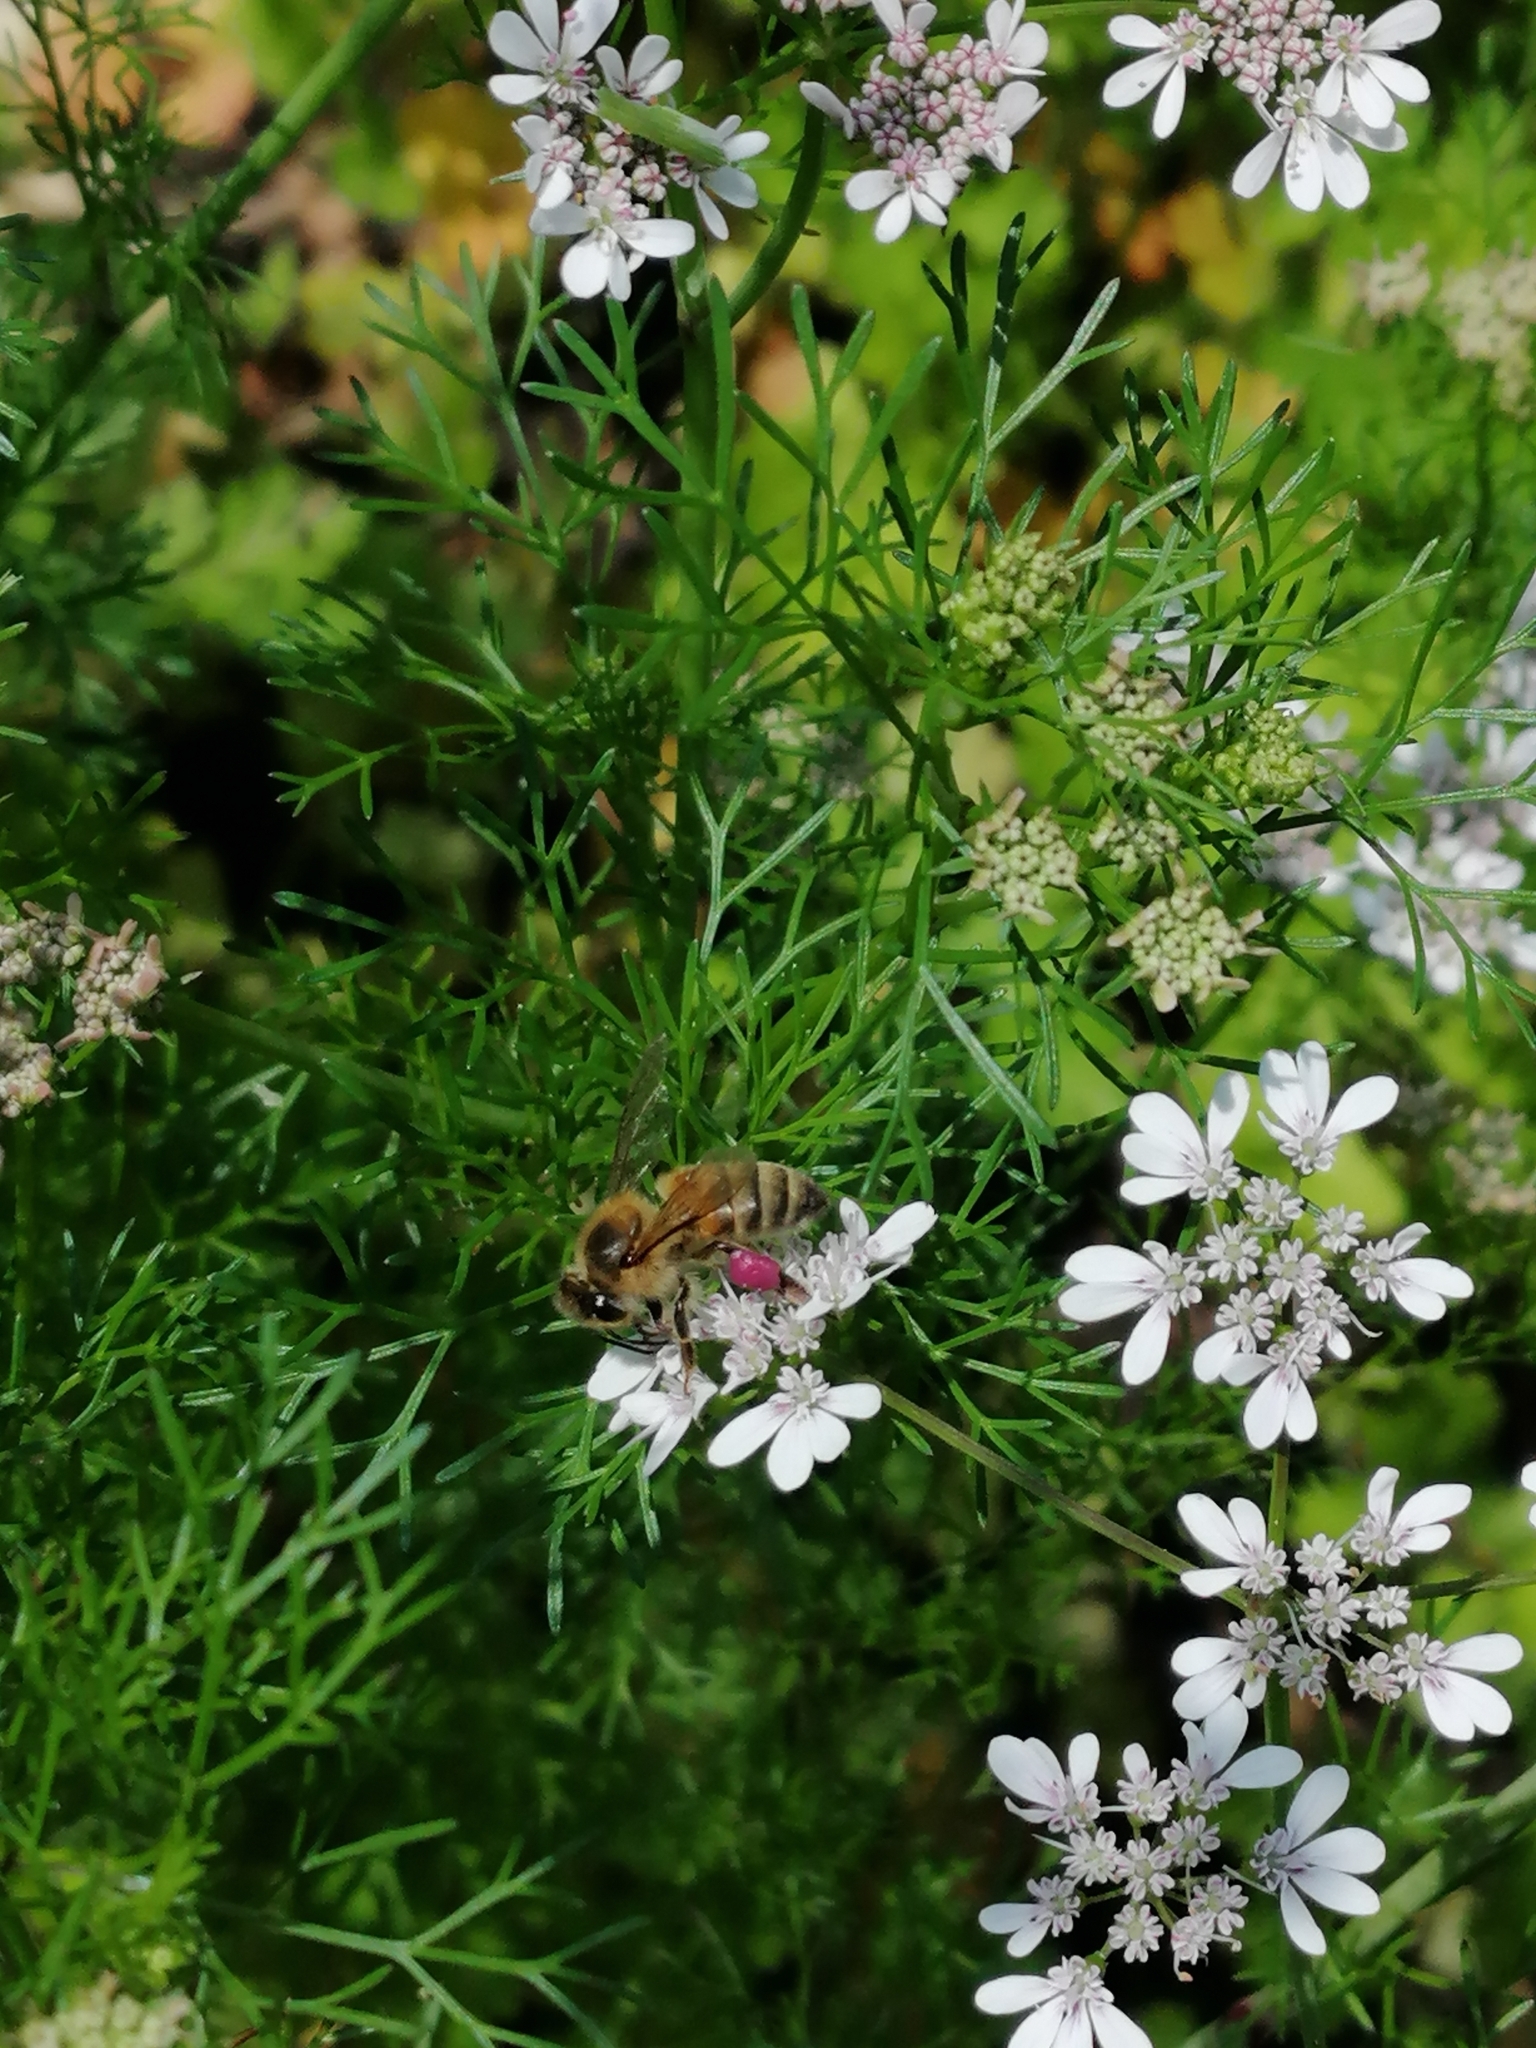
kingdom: Animalia
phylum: Arthropoda
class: Insecta
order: Hymenoptera
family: Apidae
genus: Apis
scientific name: Apis mellifera
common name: Honey bee
